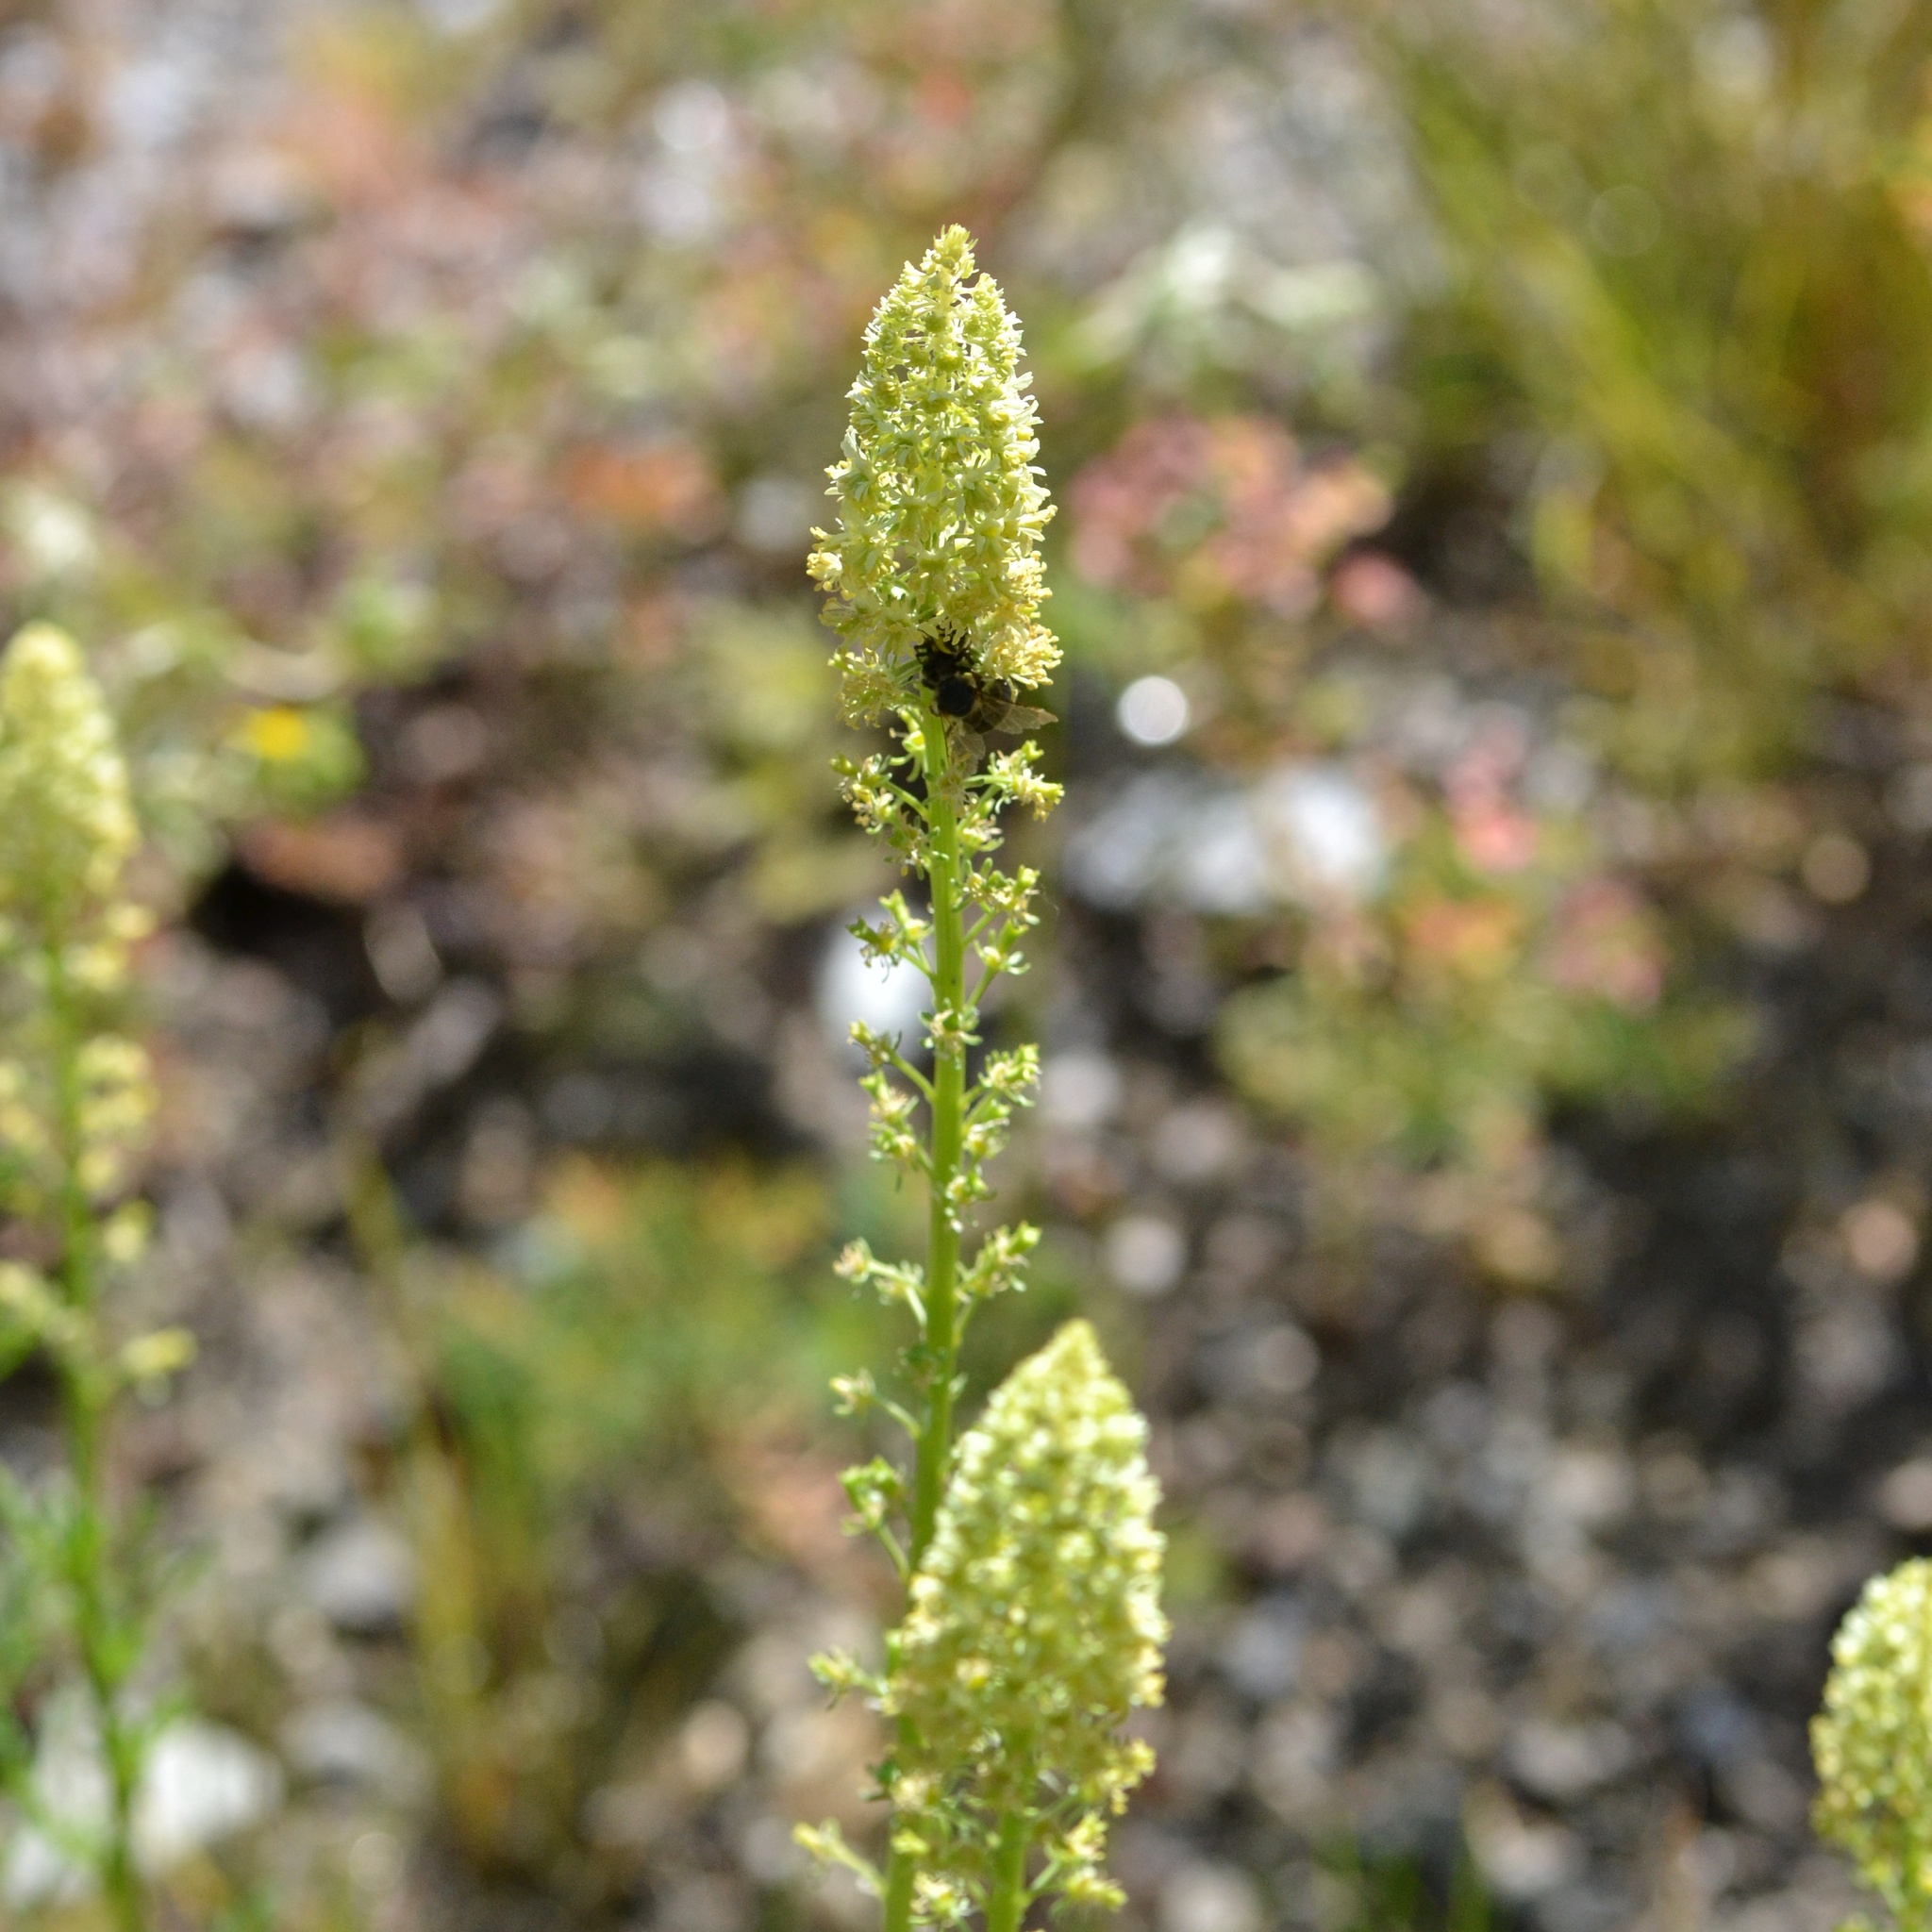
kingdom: Plantae
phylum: Tracheophyta
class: Magnoliopsida
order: Brassicales
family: Resedaceae
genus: Reseda
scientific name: Reseda lutea
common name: Wild mignonette
